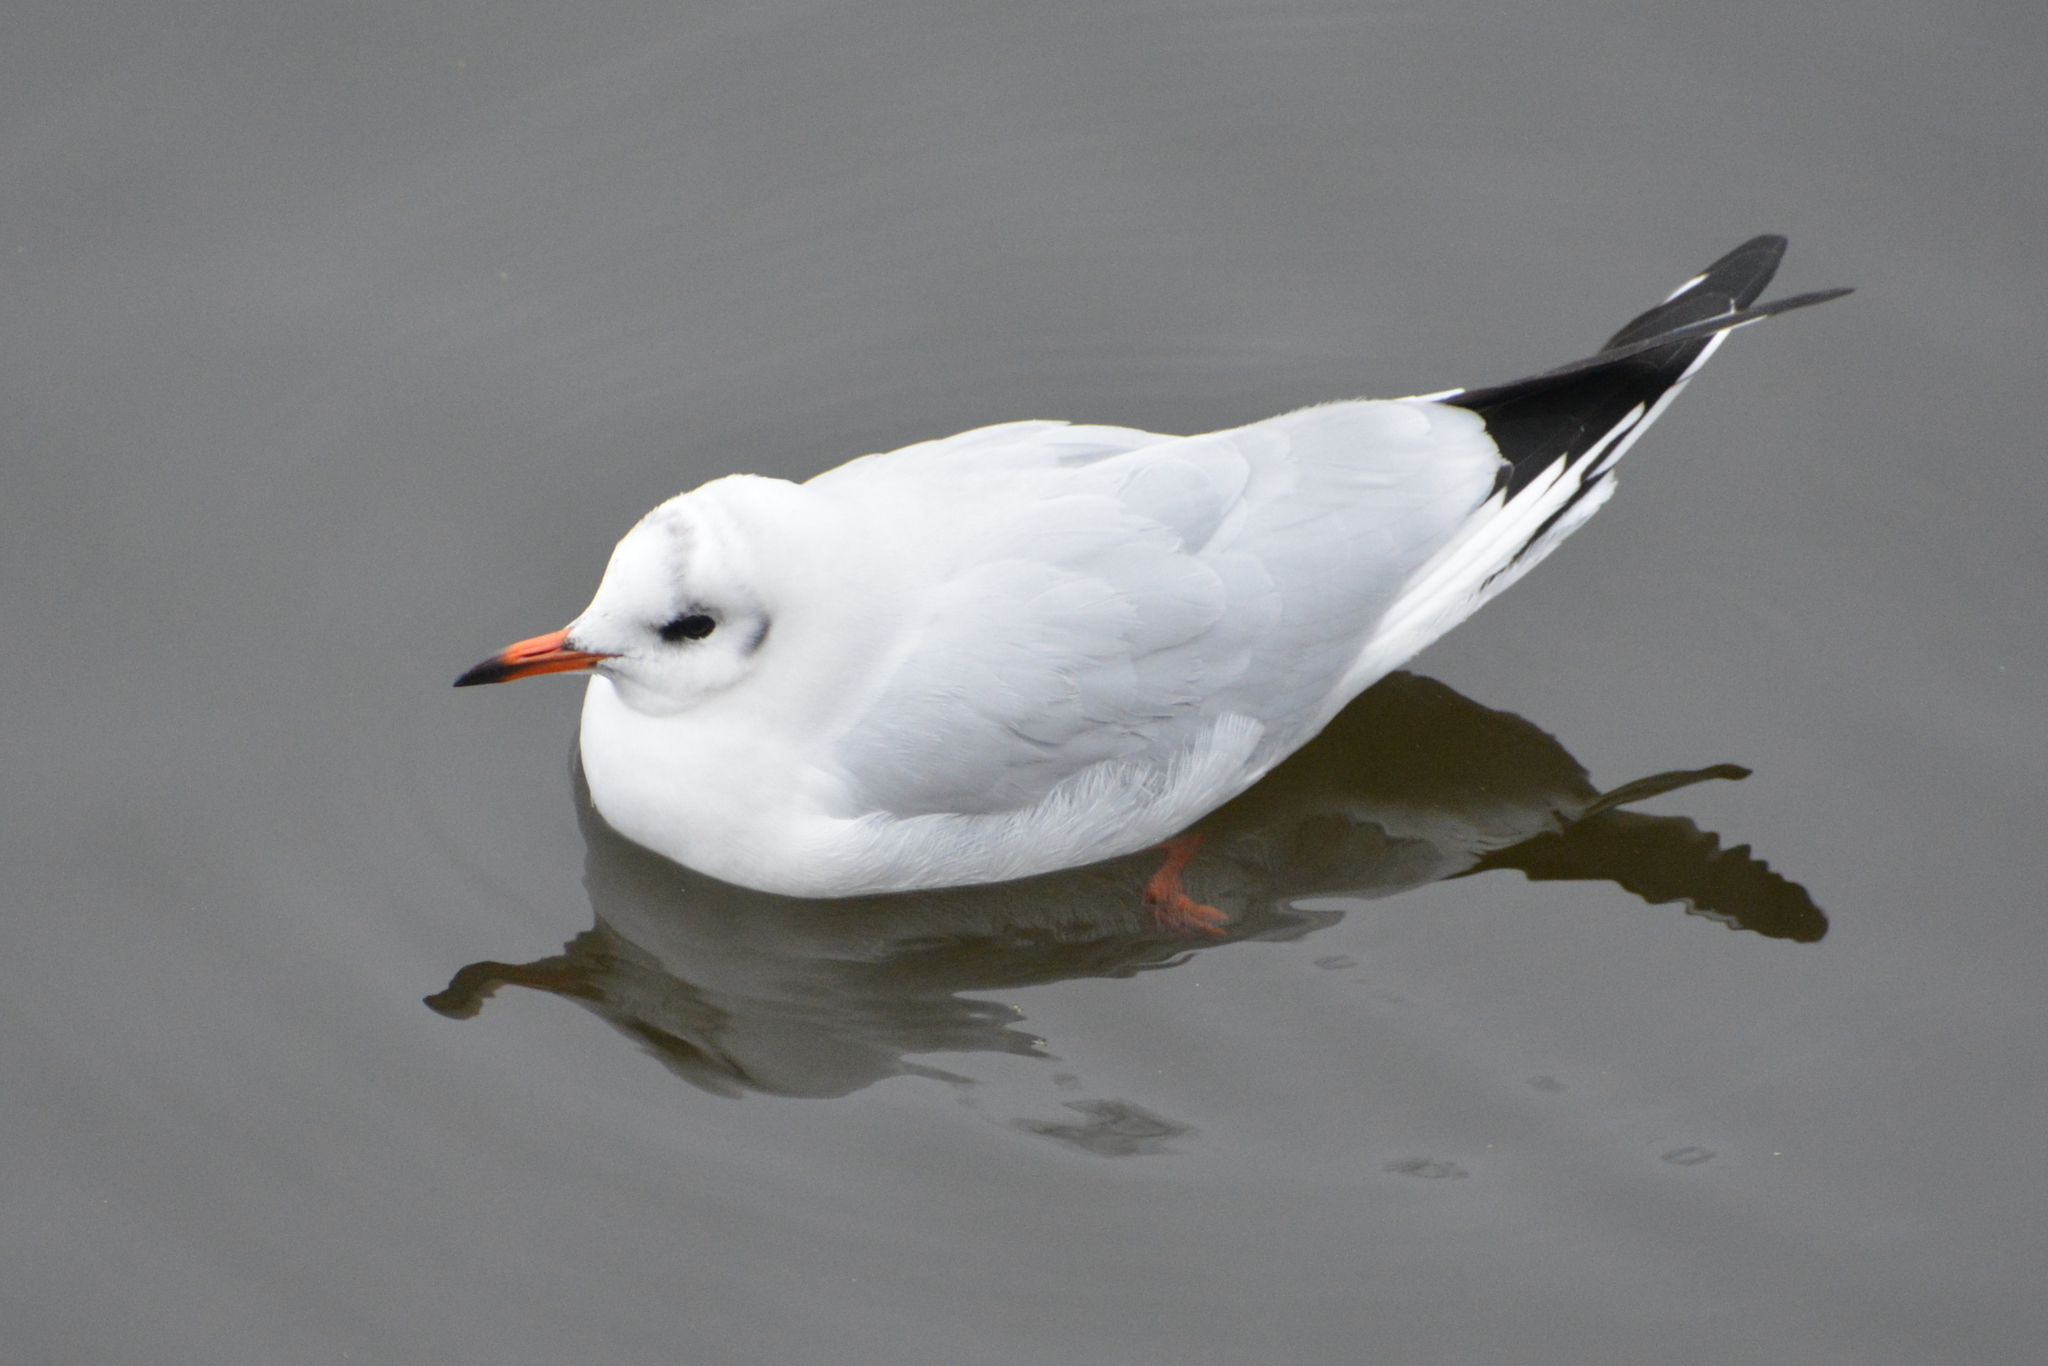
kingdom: Animalia
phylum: Chordata
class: Aves
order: Charadriiformes
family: Laridae
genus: Chroicocephalus
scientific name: Chroicocephalus ridibundus
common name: Black-headed gull
